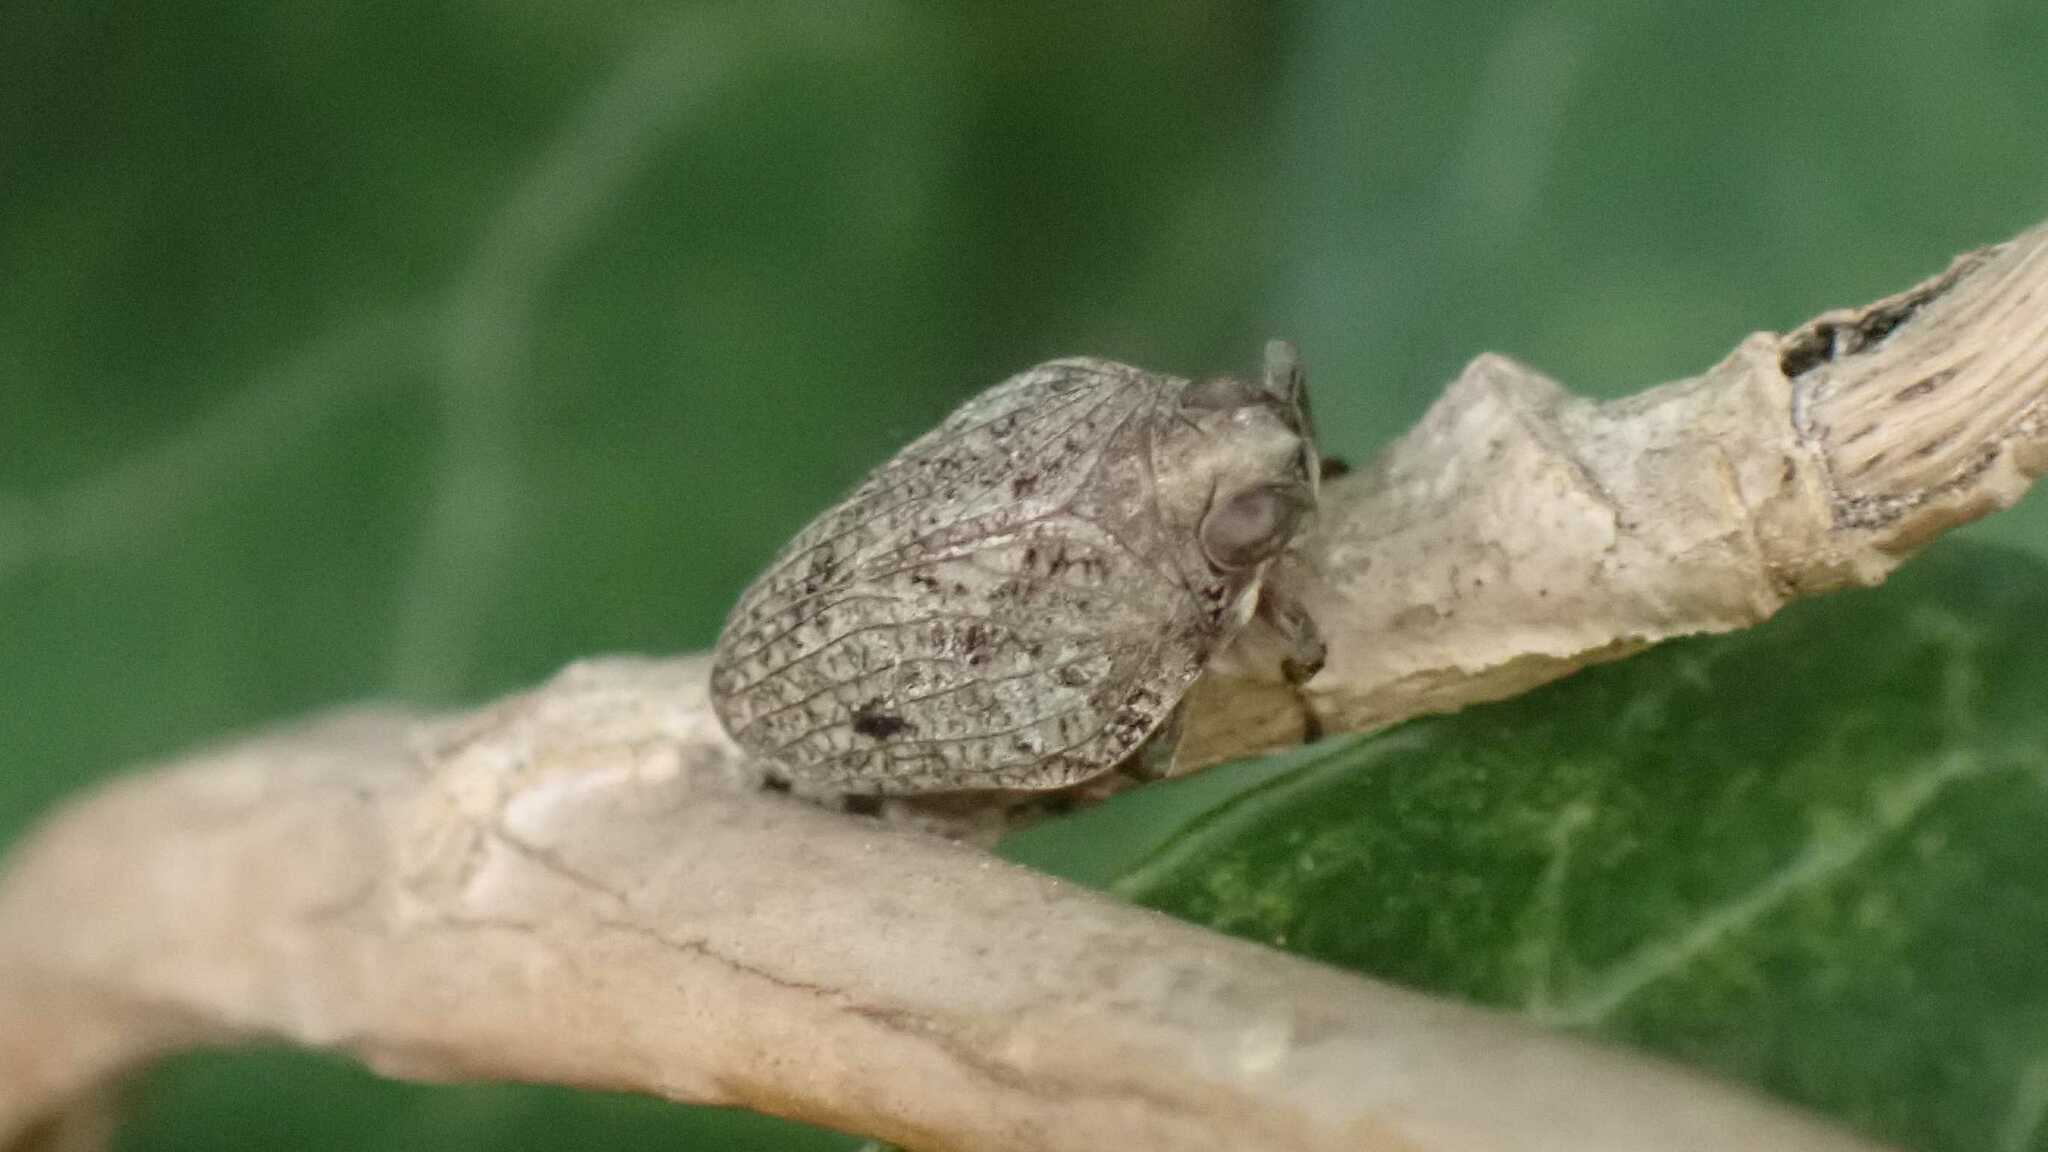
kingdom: Animalia
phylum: Arthropoda
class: Insecta
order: Hemiptera
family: Issidae
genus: Issus
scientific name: Issus coleoptratus
